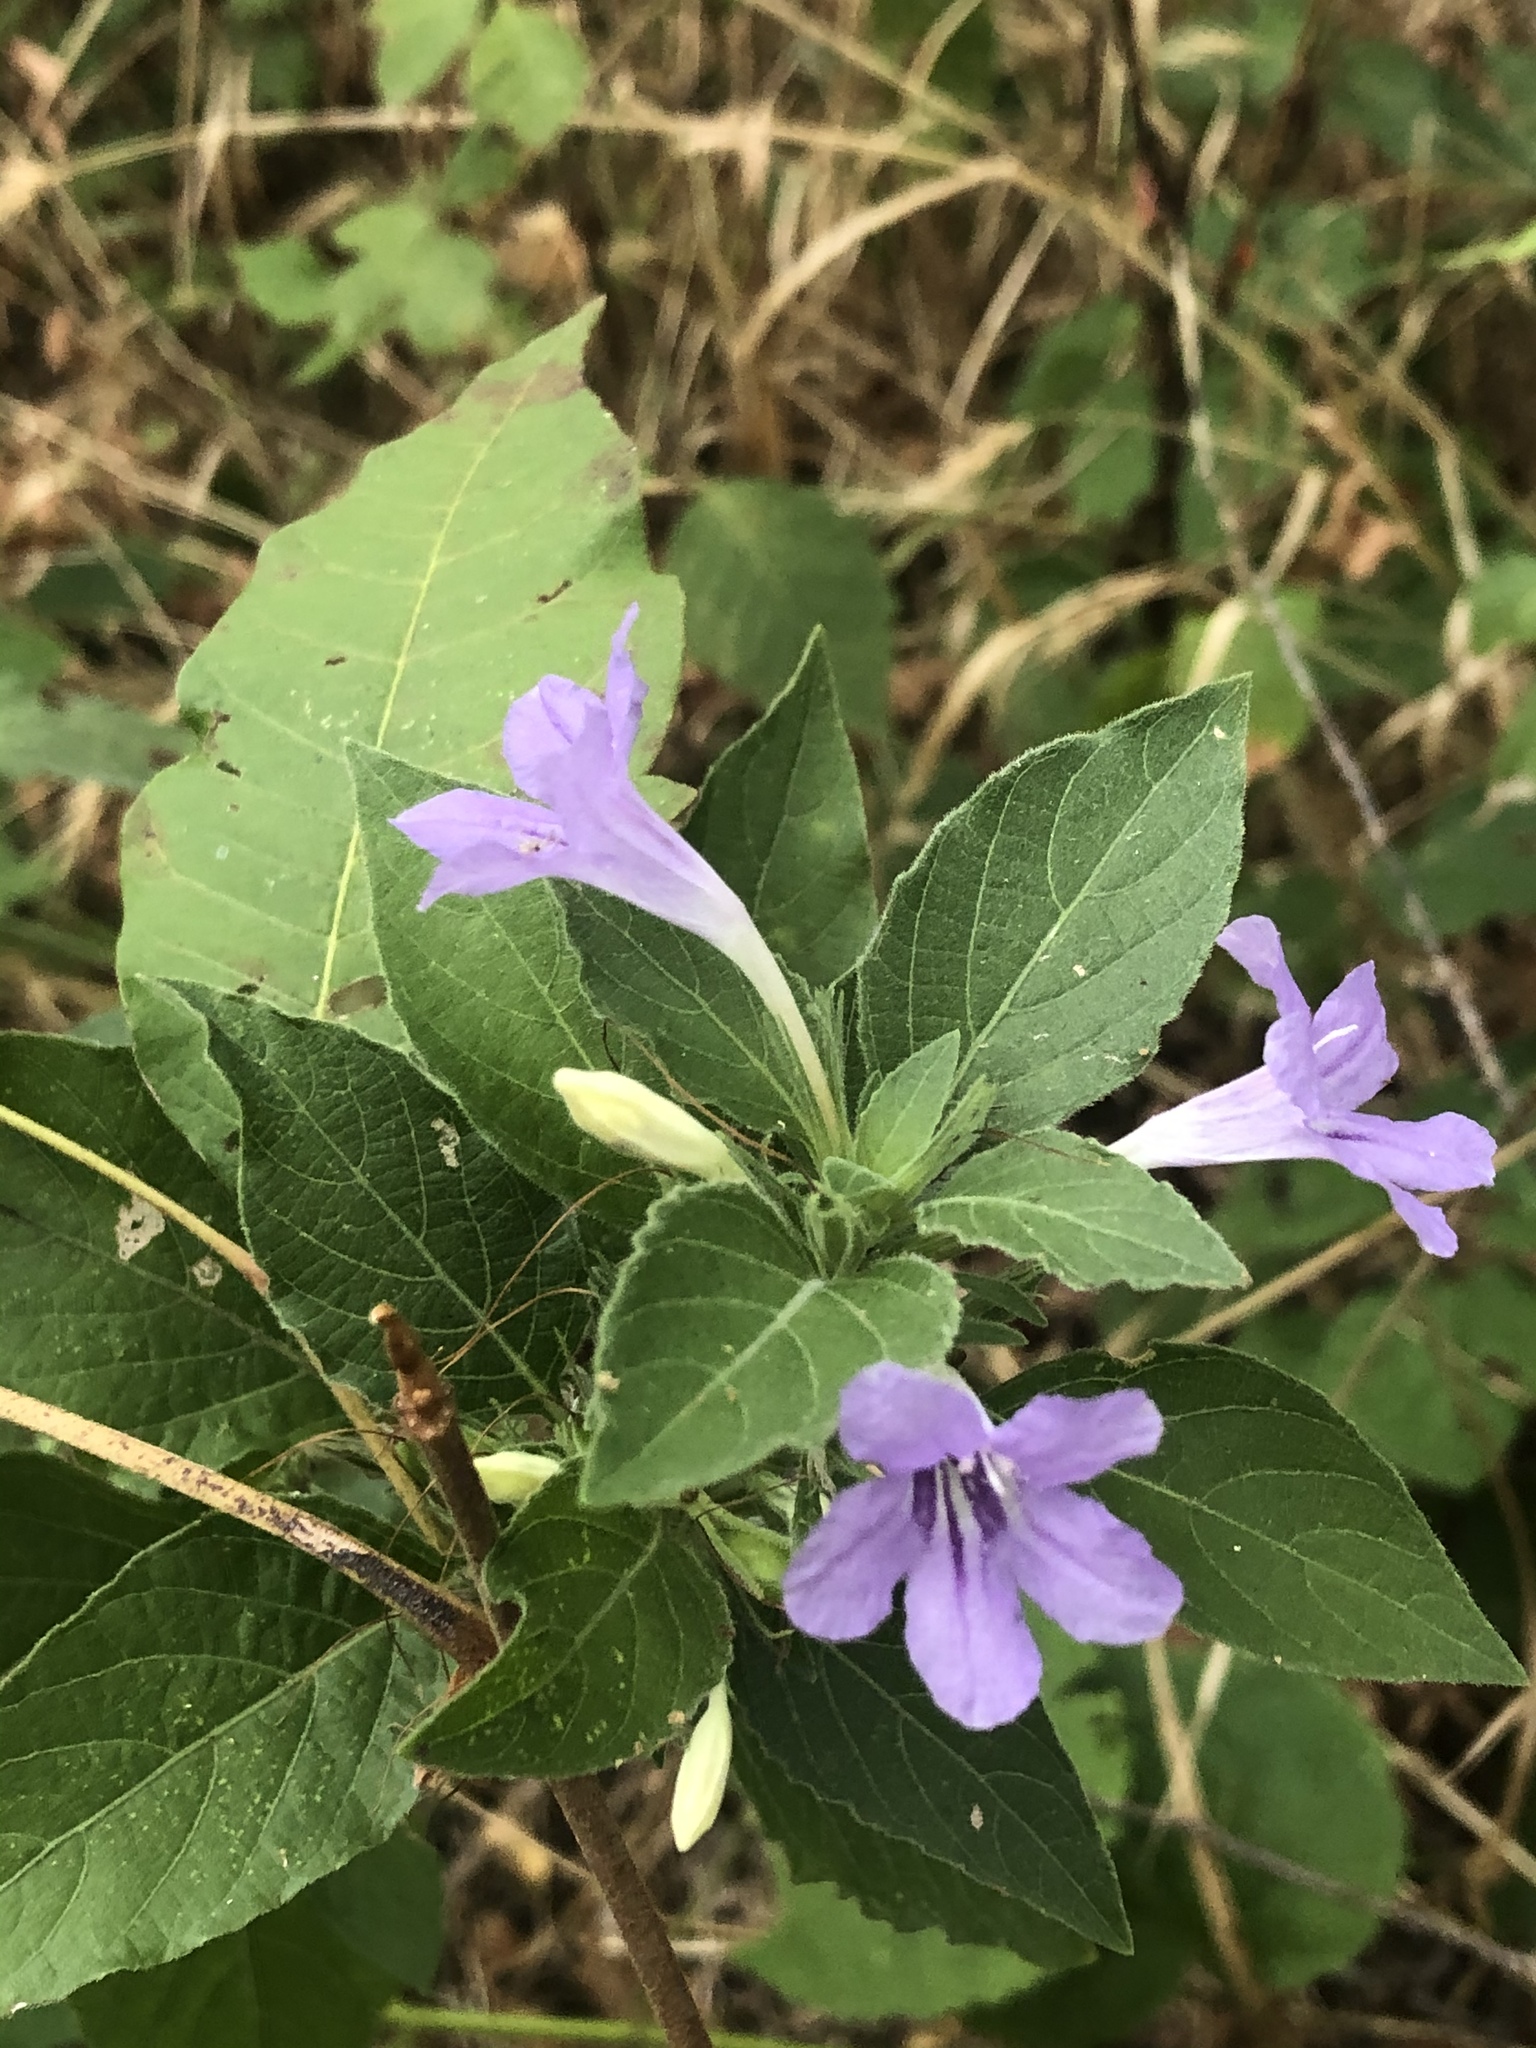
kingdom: Plantae
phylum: Tracheophyta
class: Magnoliopsida
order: Lamiales
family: Acanthaceae
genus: Ruellia
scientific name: Ruellia drummondiana
